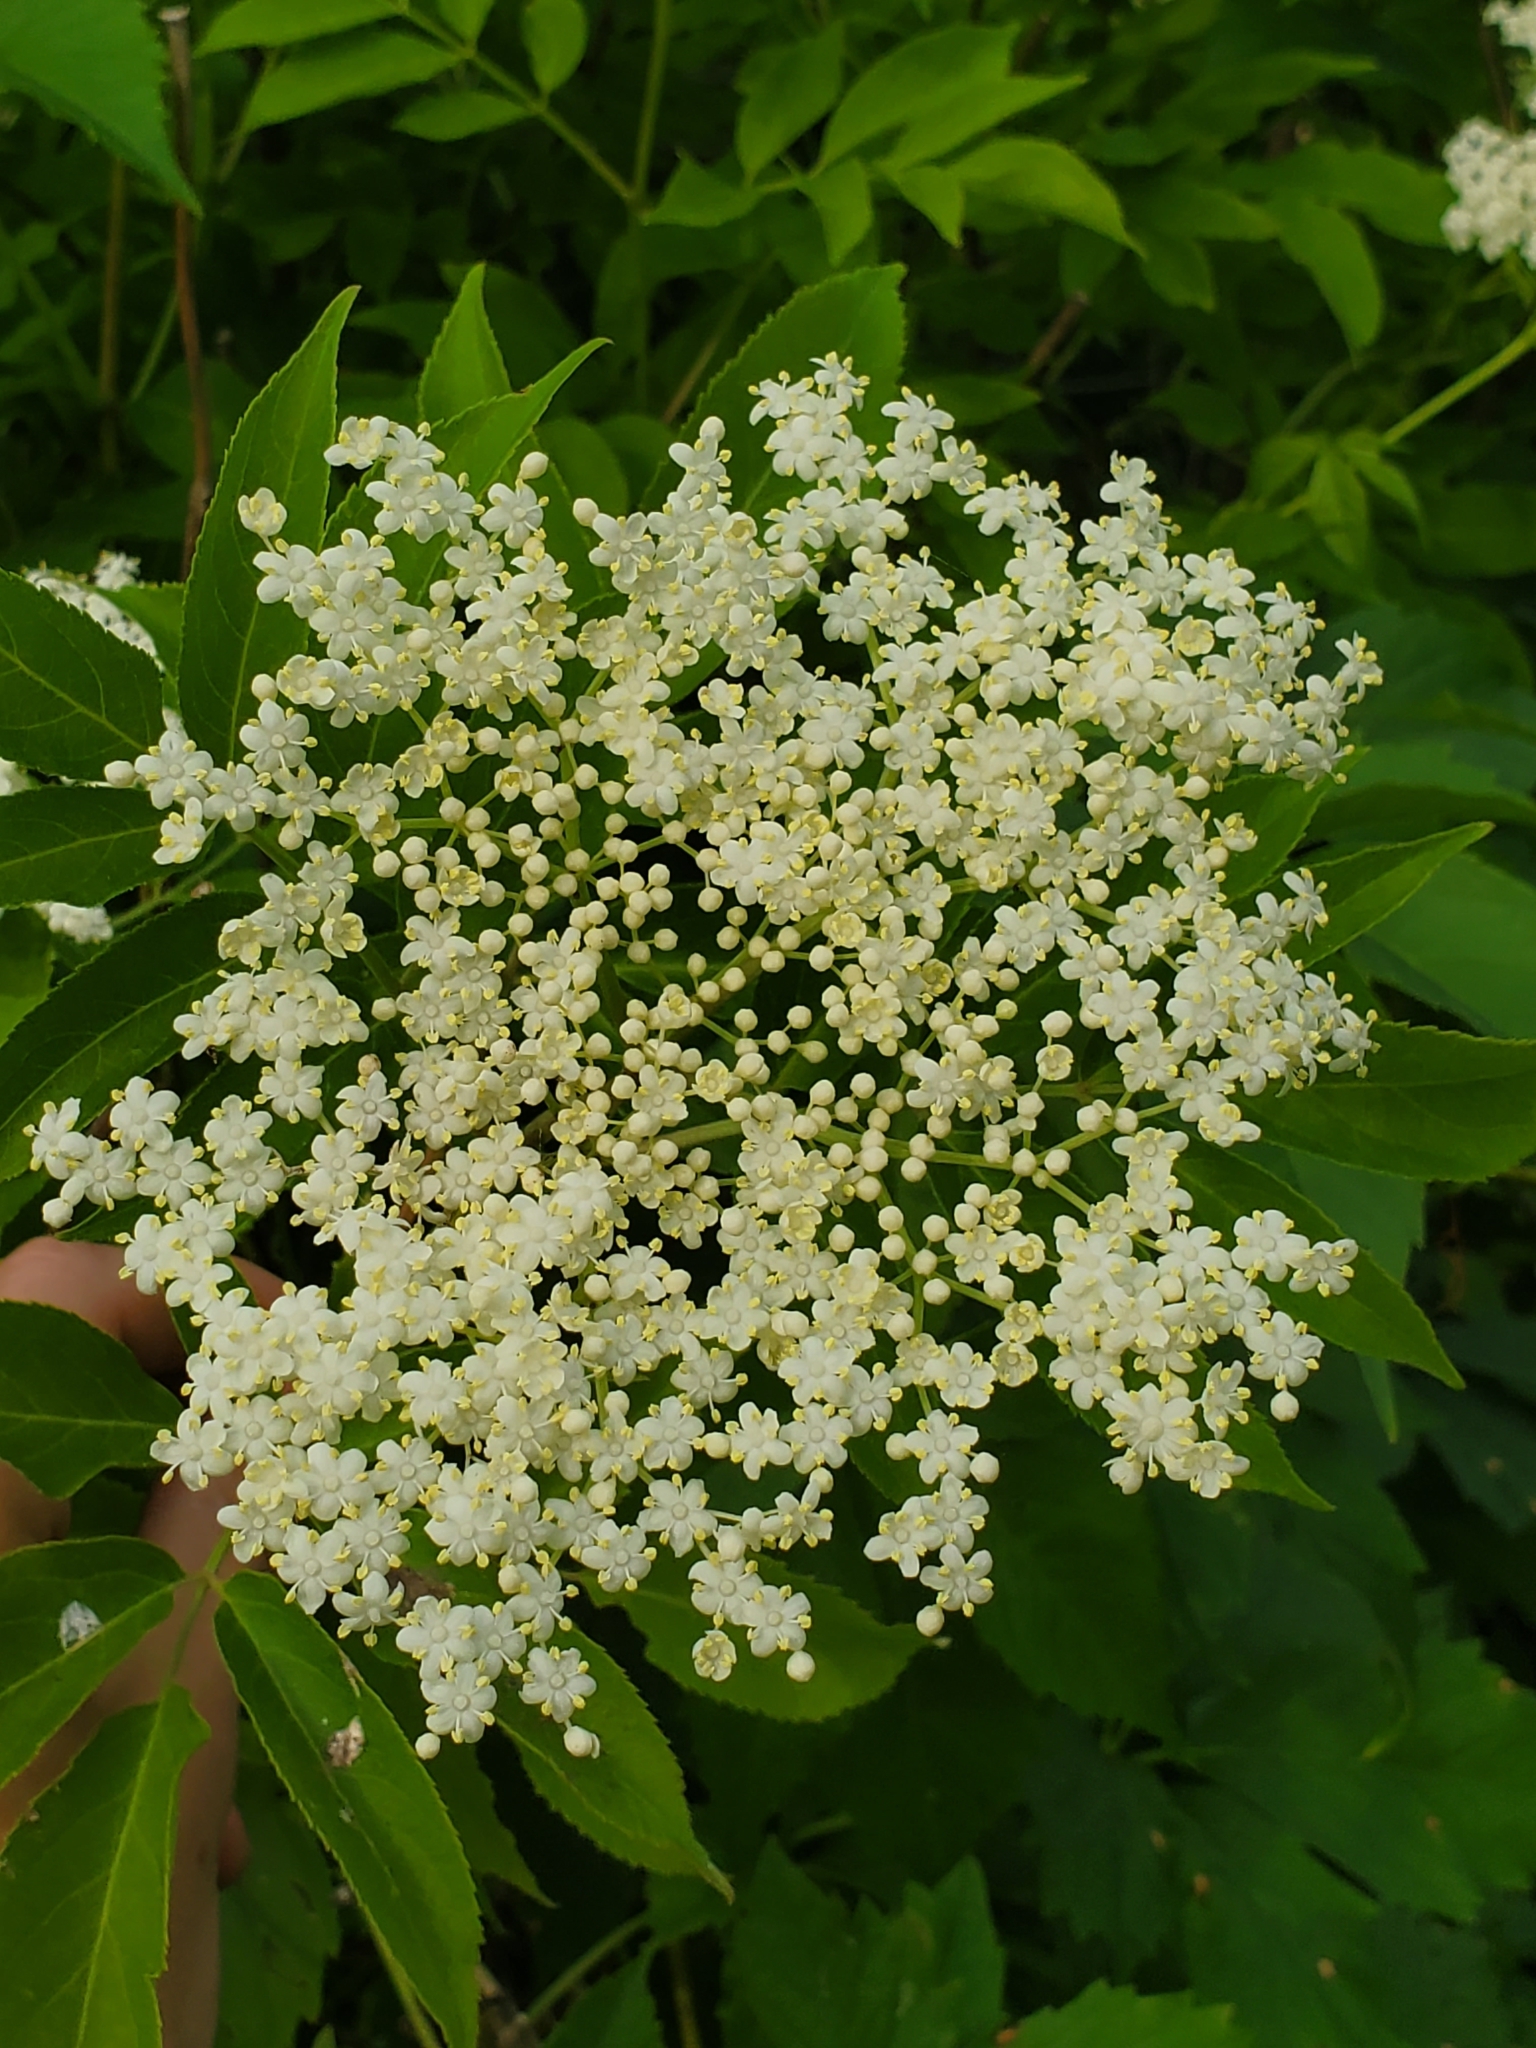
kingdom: Plantae
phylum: Tracheophyta
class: Magnoliopsida
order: Dipsacales
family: Viburnaceae
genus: Sambucus
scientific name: Sambucus canadensis
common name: American elder
